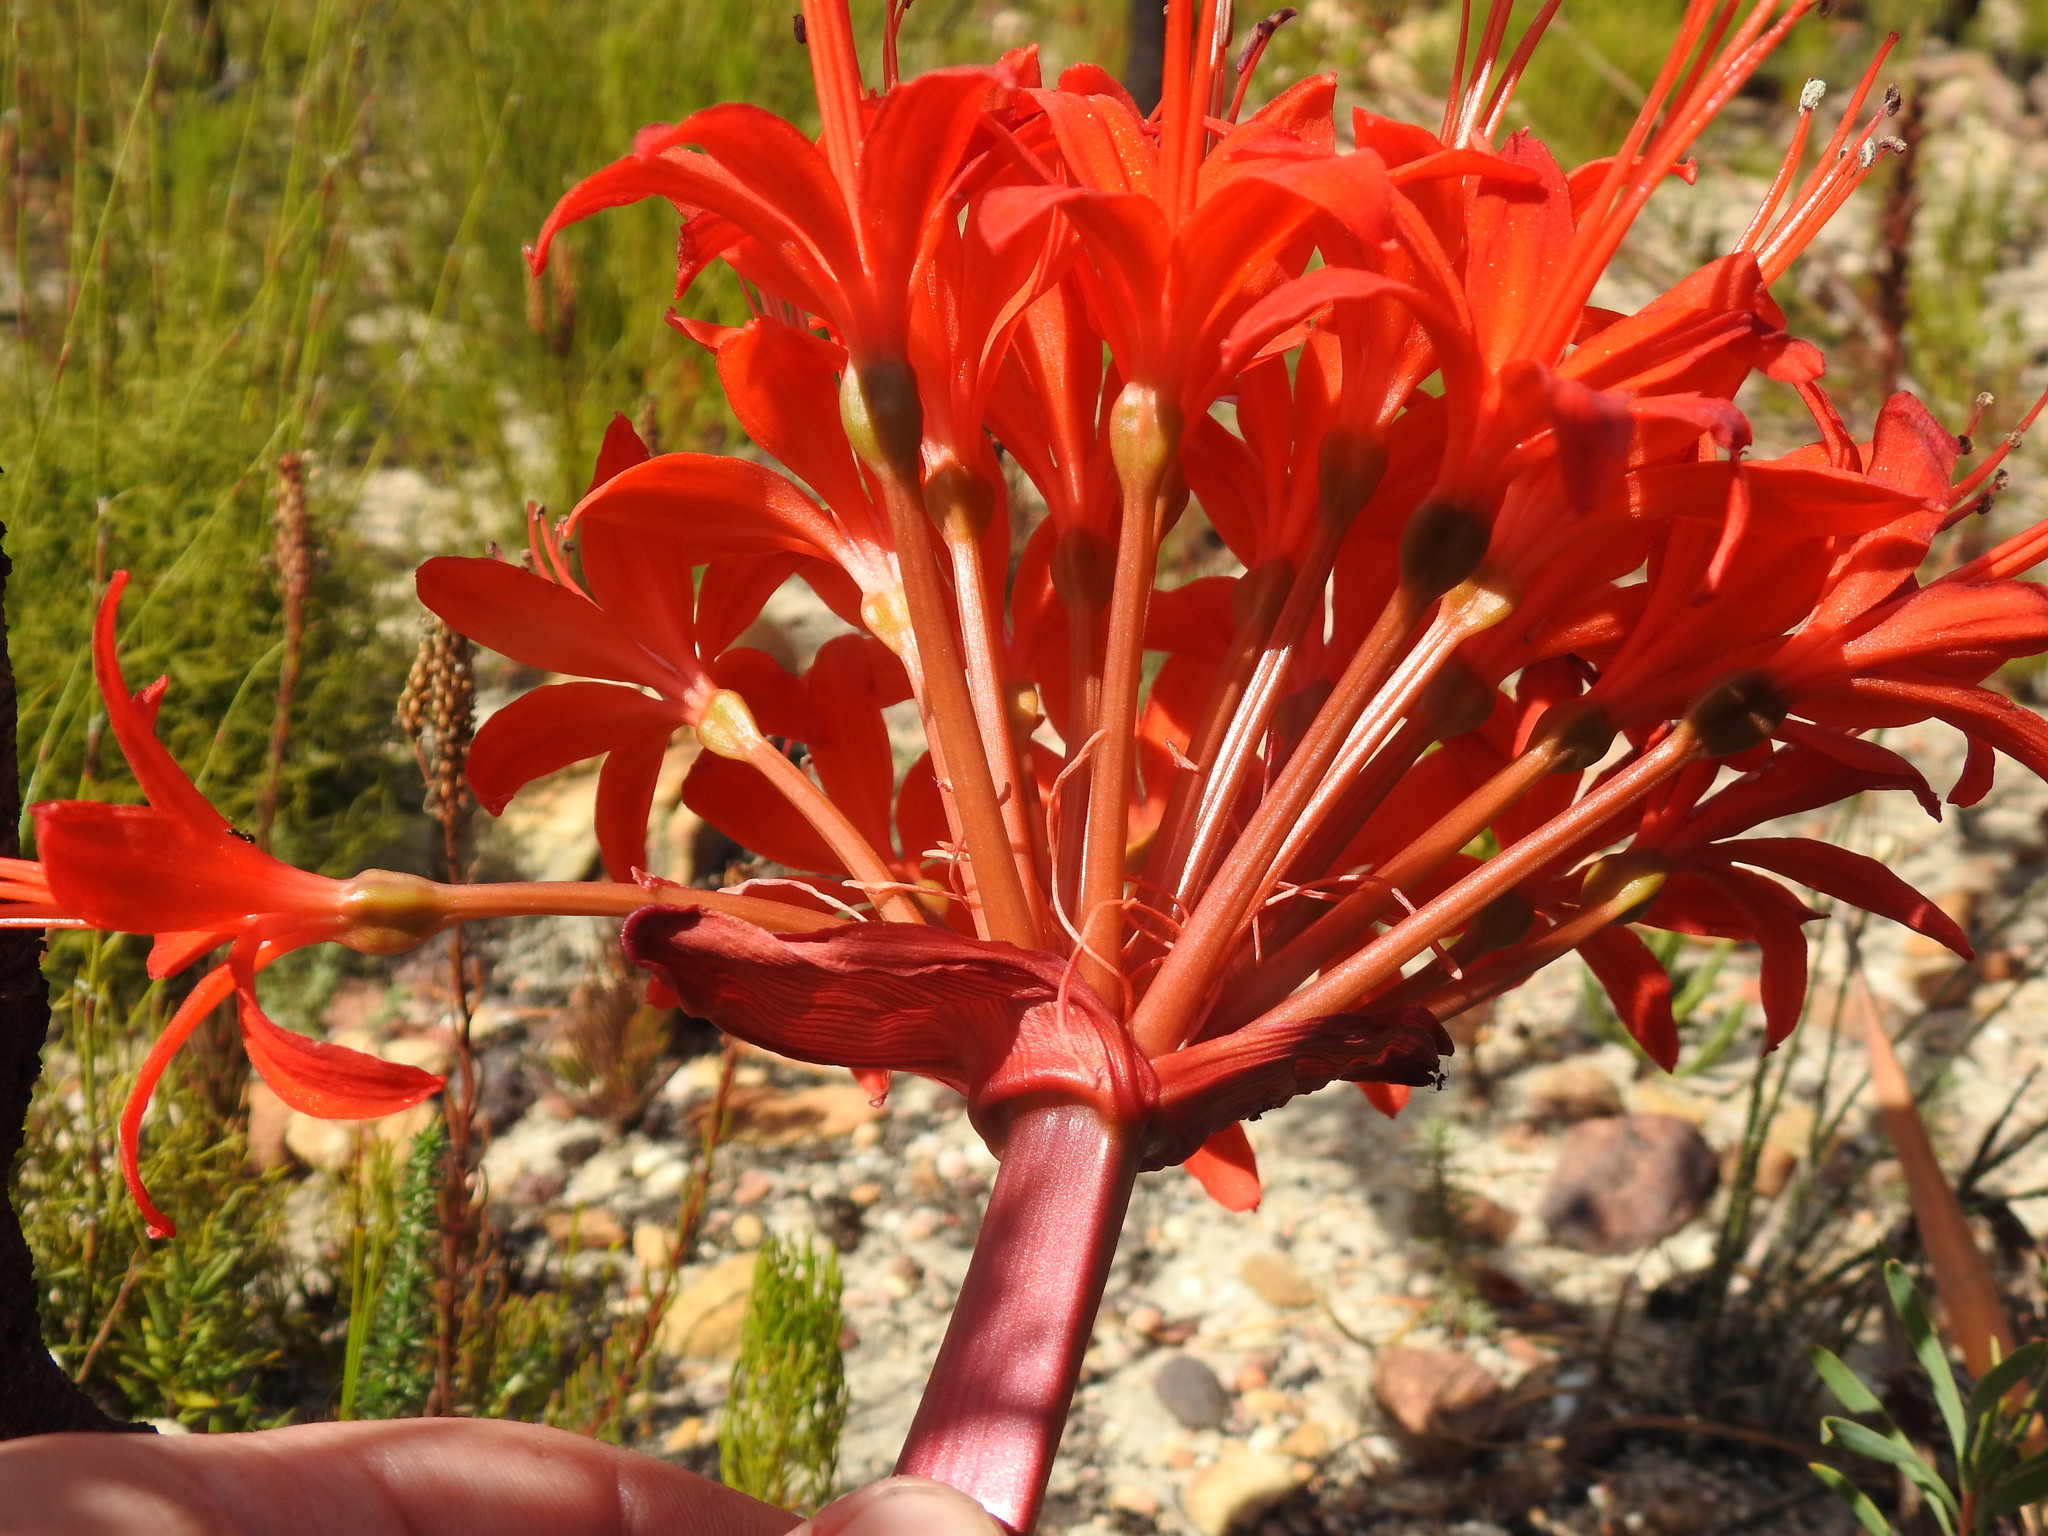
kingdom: Plantae
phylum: Tracheophyta
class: Liliopsida
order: Asparagales
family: Amaryllidaceae
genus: Brunsvigia
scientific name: Brunsvigia marginata
